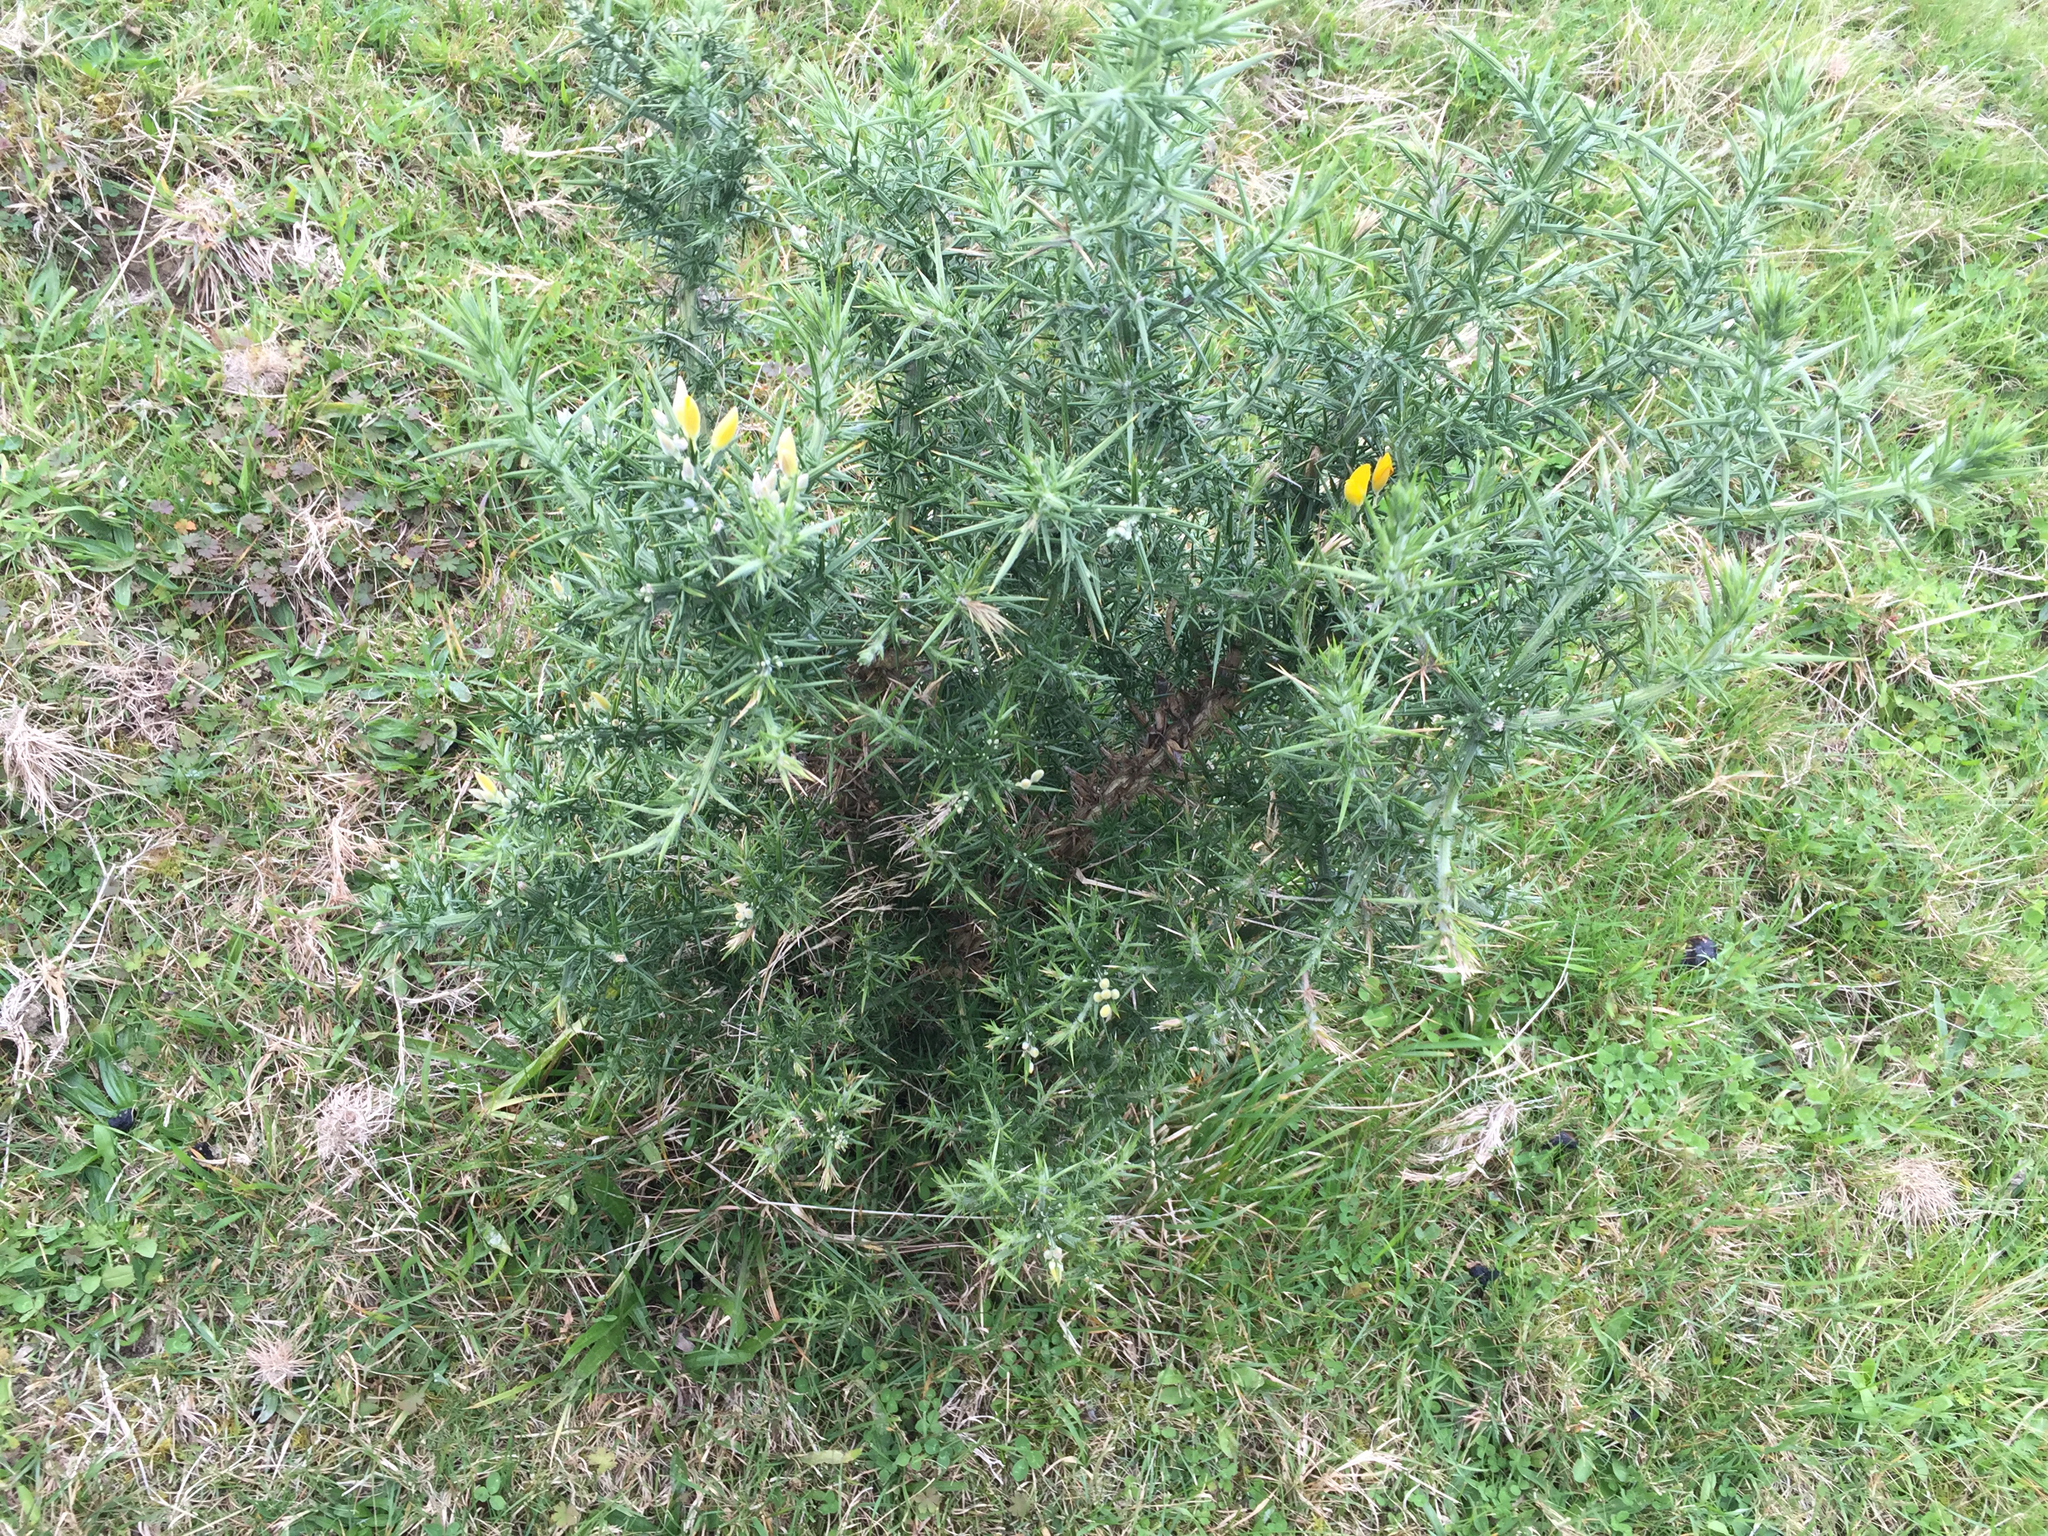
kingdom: Plantae
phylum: Tracheophyta
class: Magnoliopsida
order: Fabales
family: Fabaceae
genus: Ulex
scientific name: Ulex europaeus
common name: Common gorse
